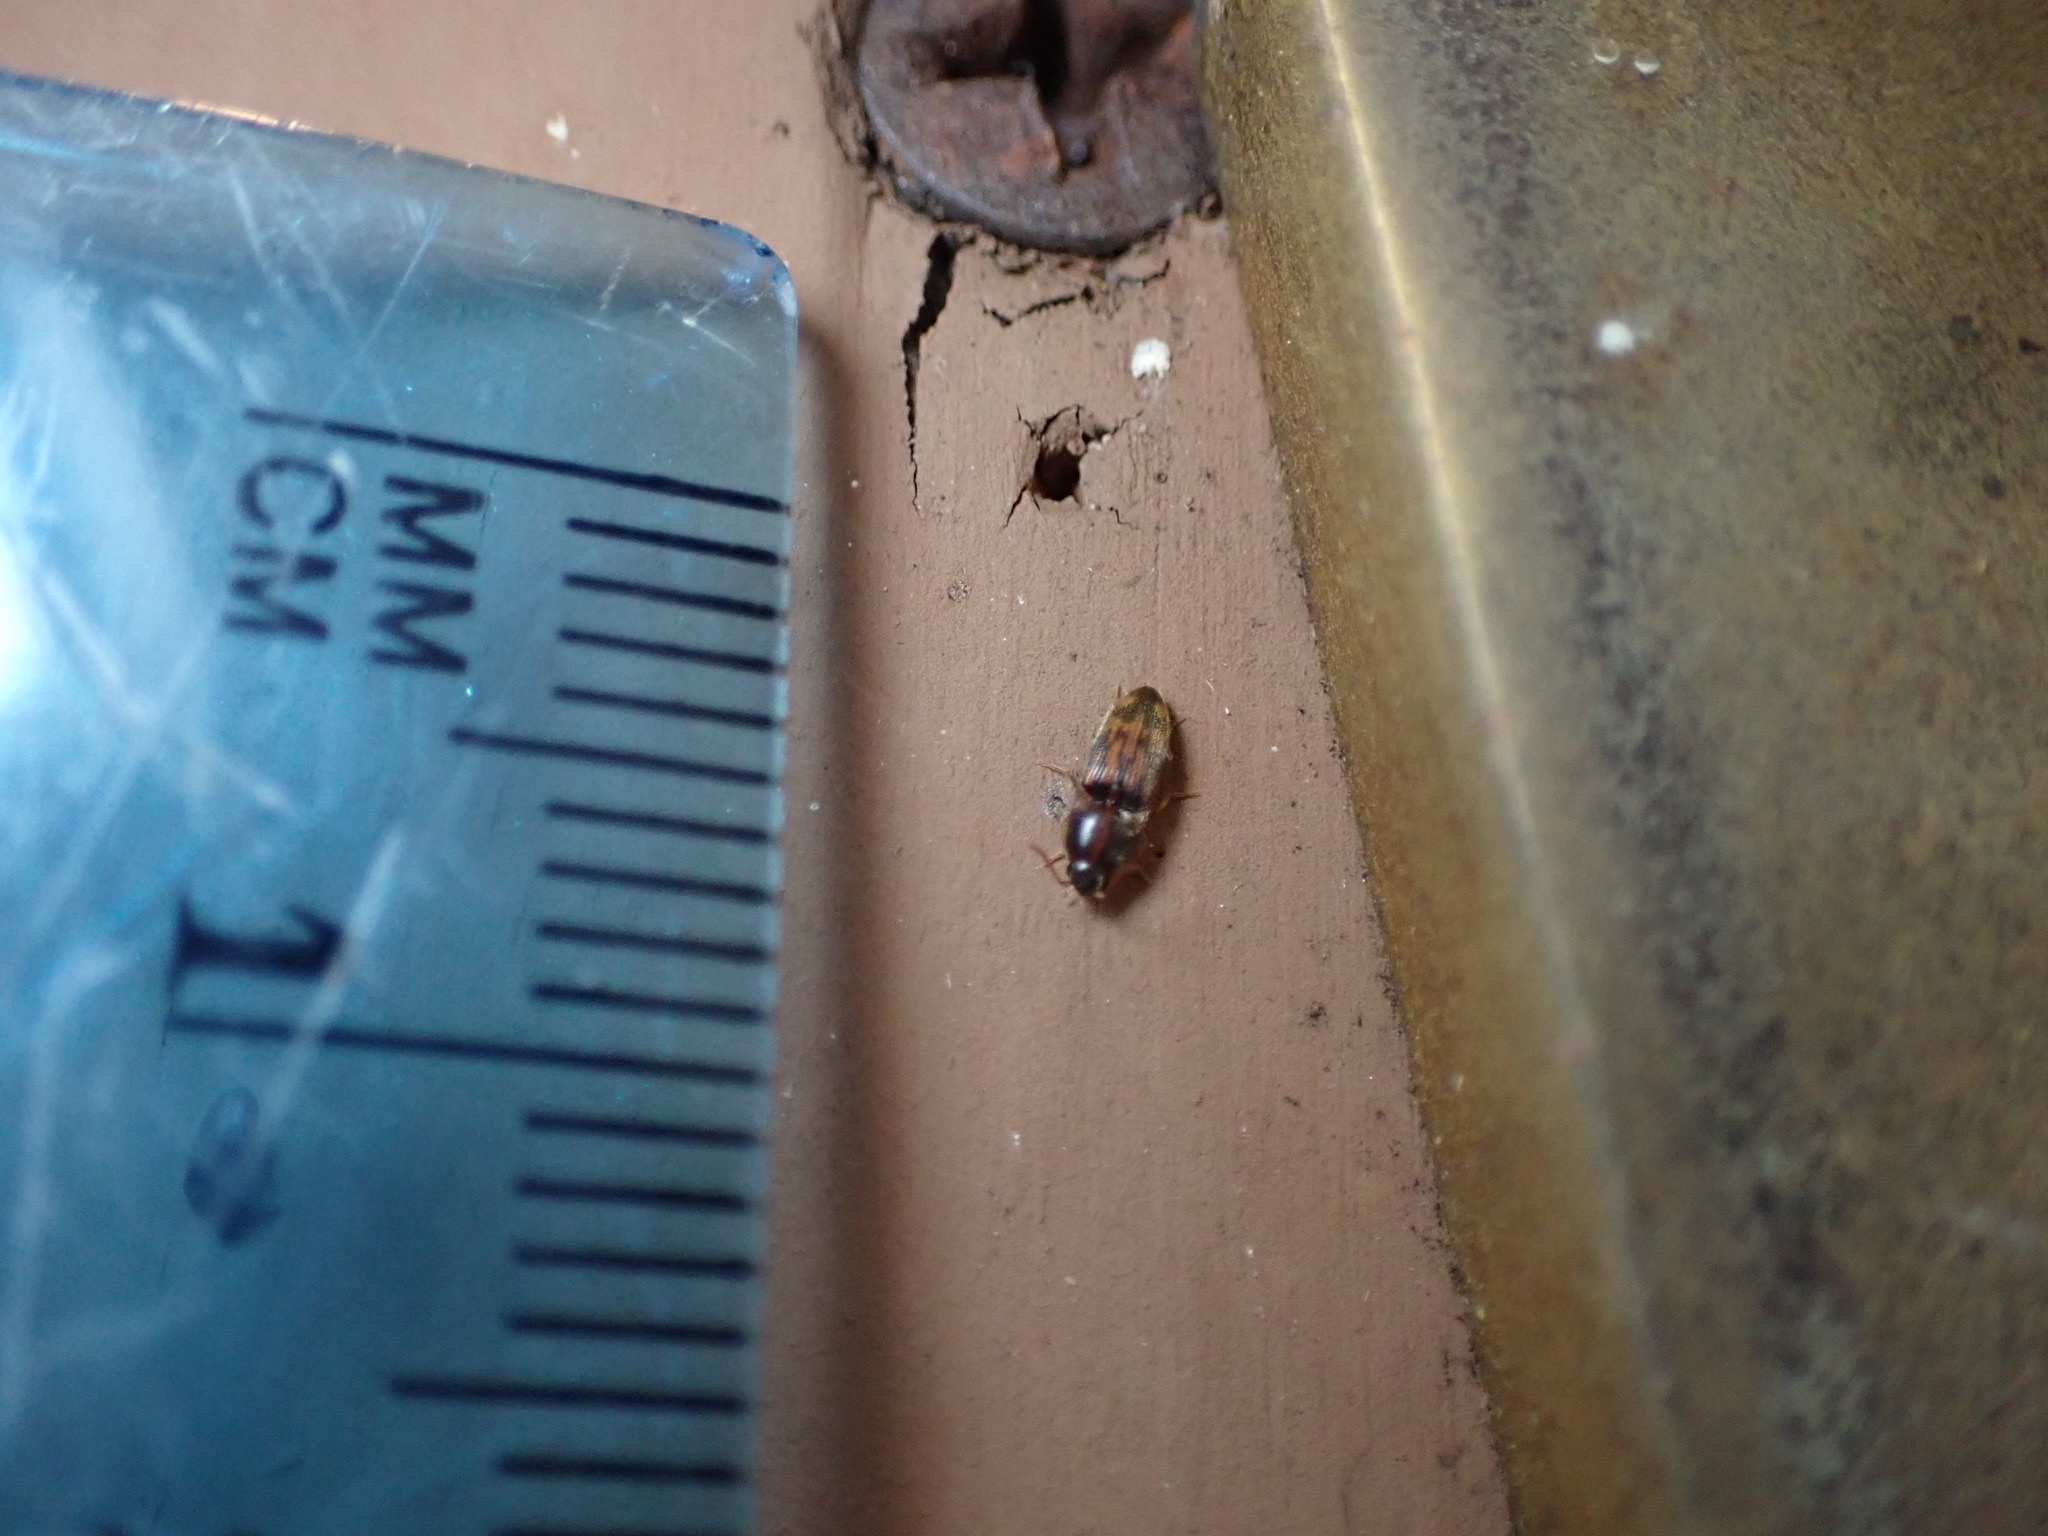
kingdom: Animalia
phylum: Arthropoda
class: Insecta
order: Coleoptera
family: Elateridae
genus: Monocrepidius
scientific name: Monocrepidius bellus
